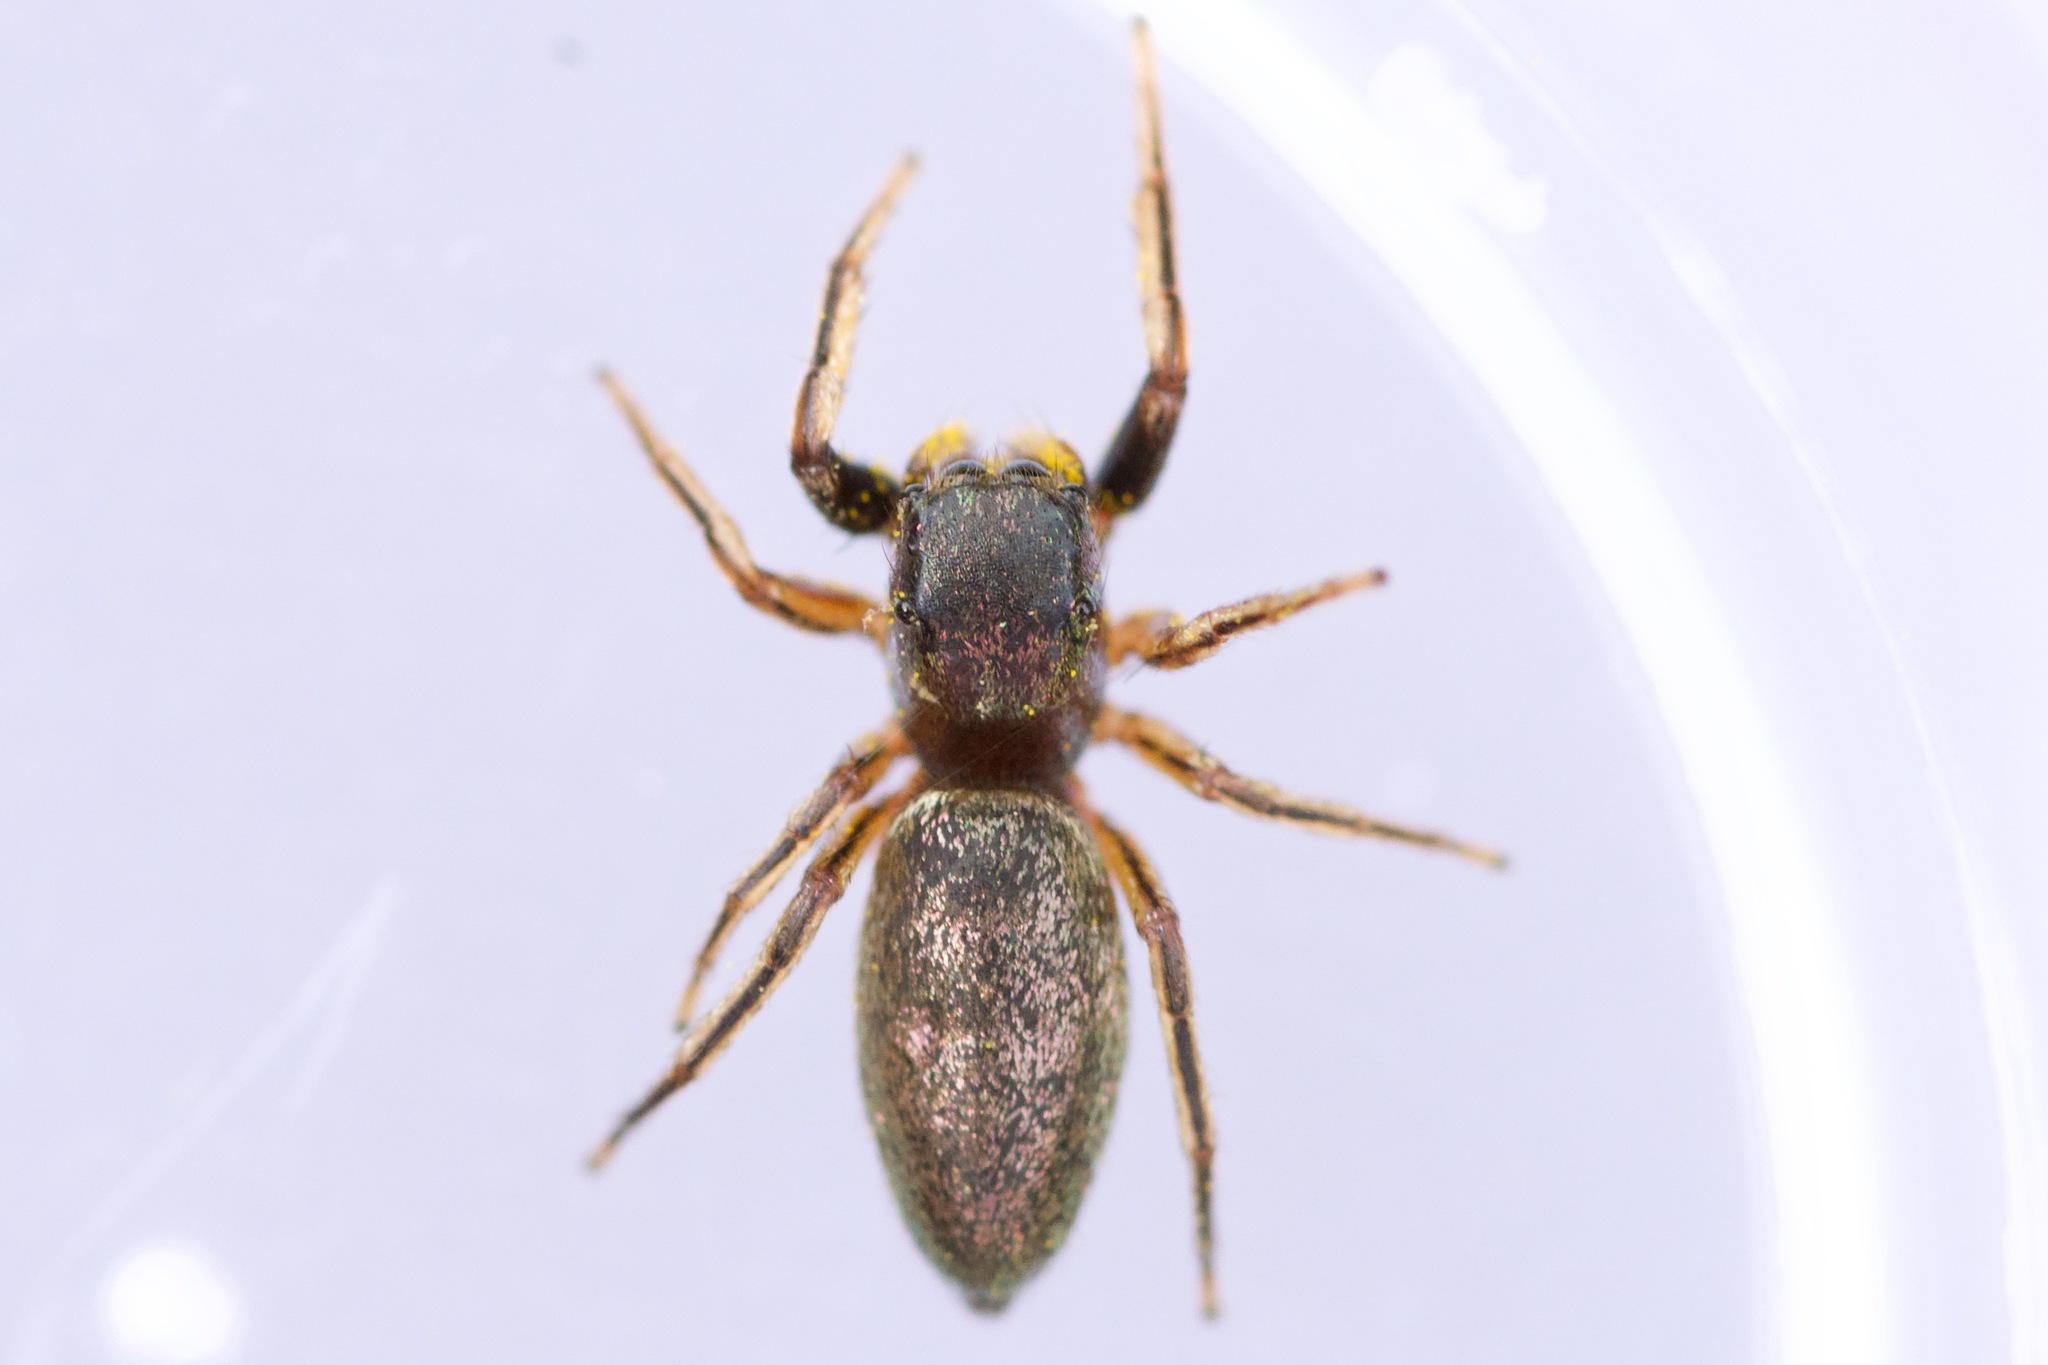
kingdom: Animalia
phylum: Arthropoda
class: Arachnida
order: Araneae
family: Salticidae
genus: Tutelina
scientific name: Tutelina elegans
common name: Thin-spined jumping spider
